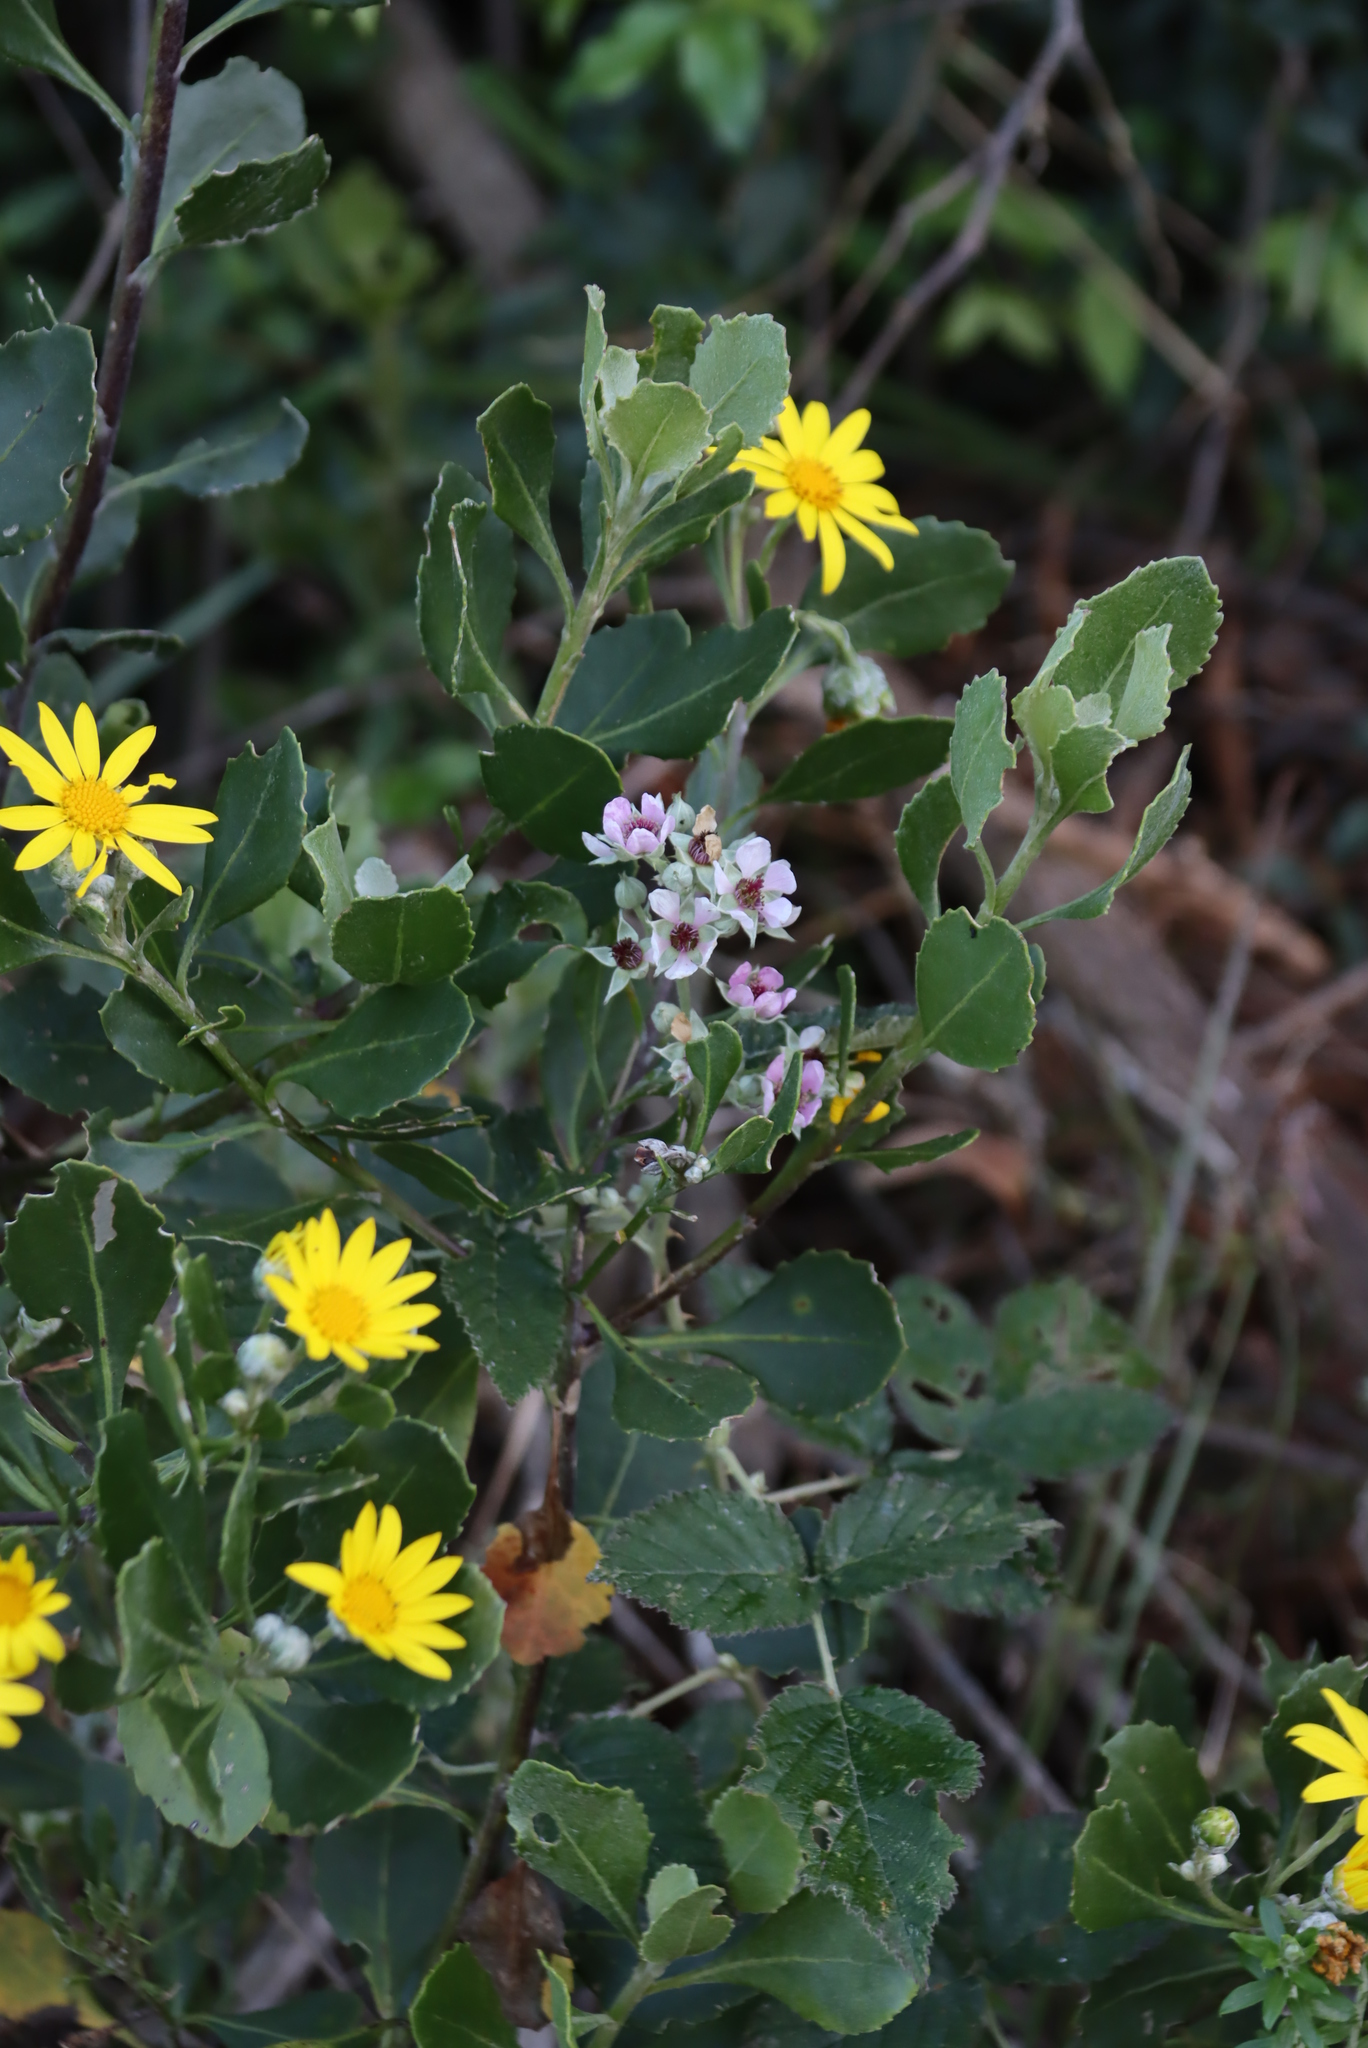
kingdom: Plantae
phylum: Tracheophyta
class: Magnoliopsida
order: Rosales
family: Rosaceae
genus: Rubus
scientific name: Rubus rigidus
